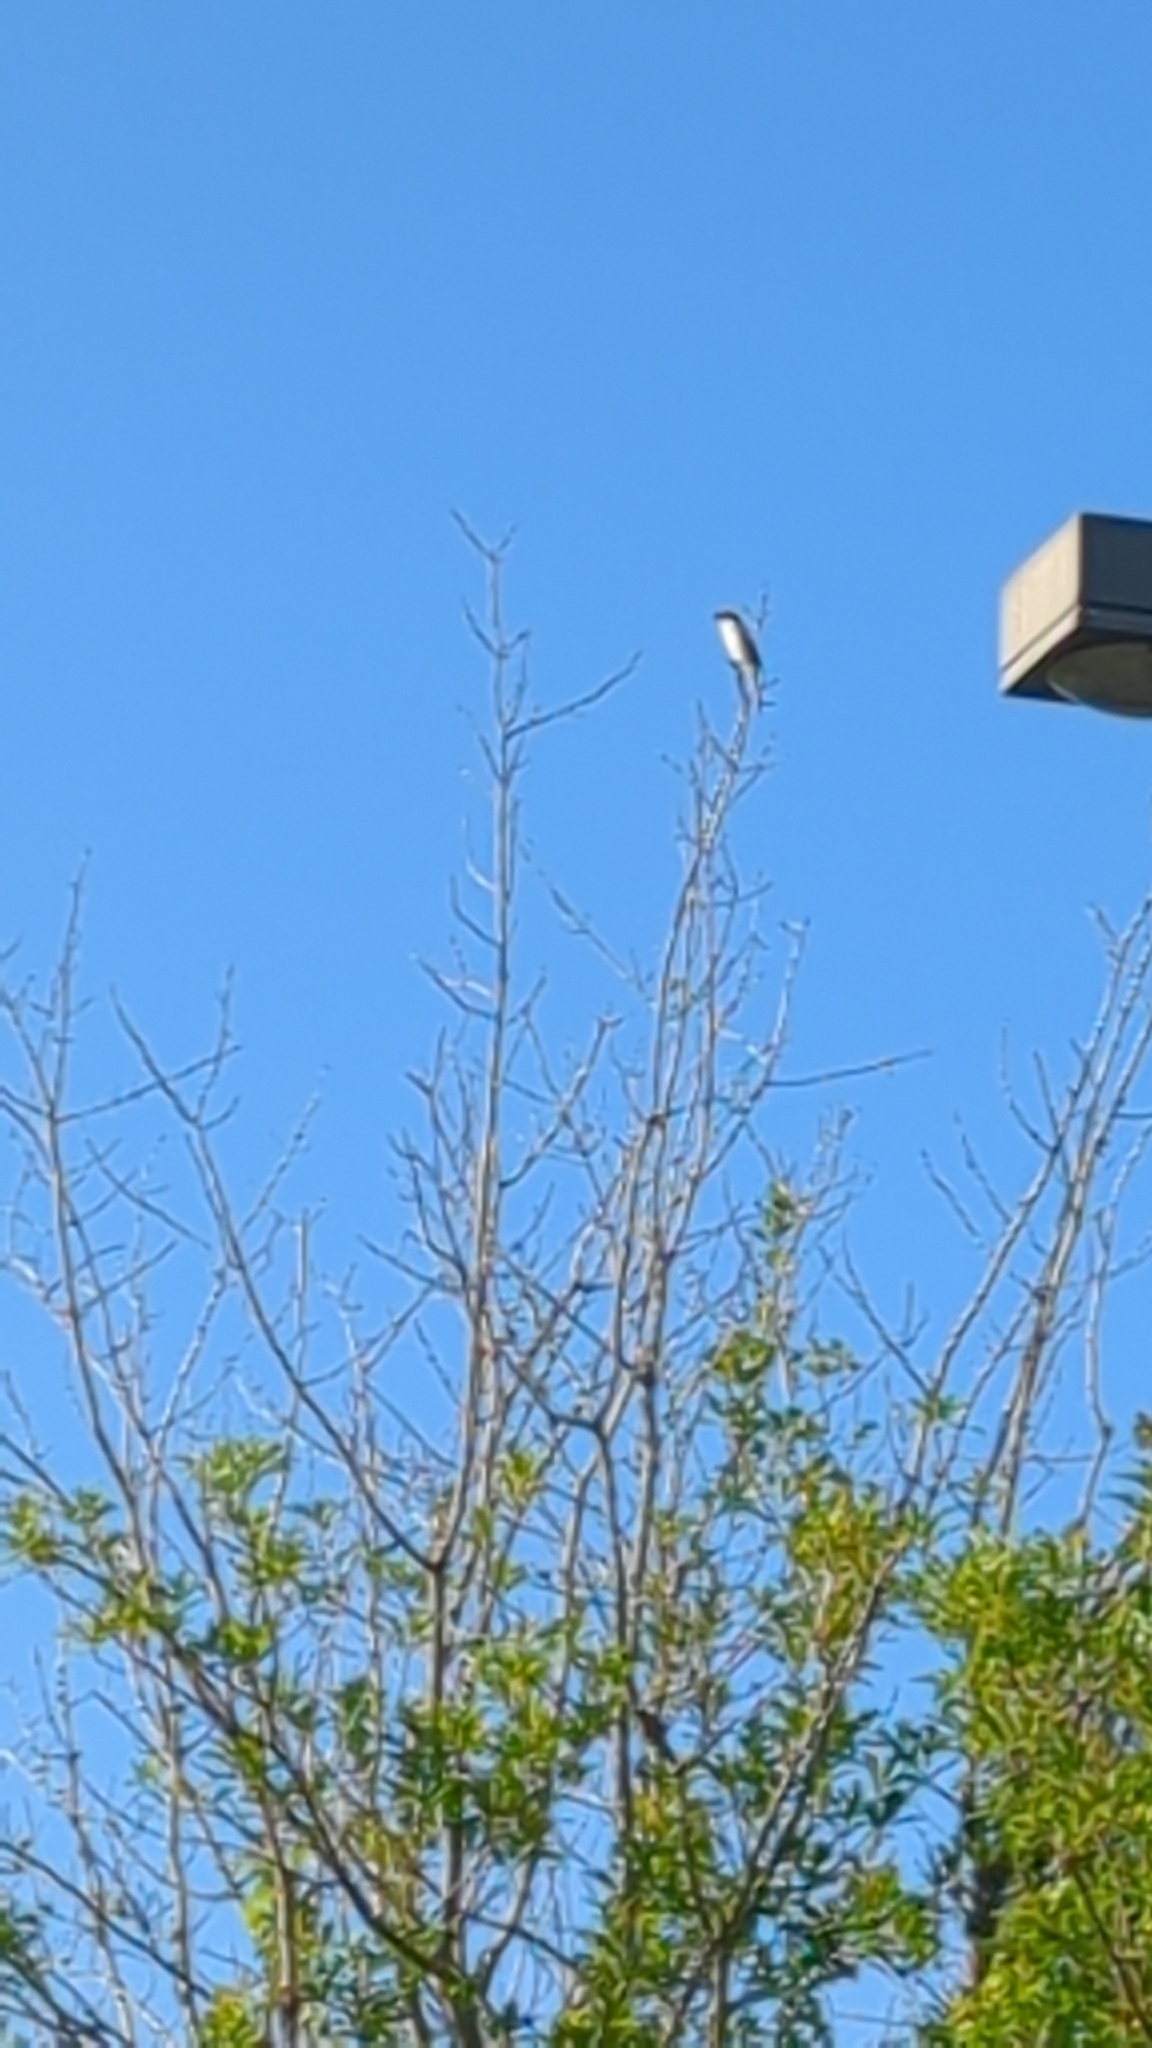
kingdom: Animalia
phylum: Chordata
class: Aves
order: Passeriformes
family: Laniidae
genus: Lanius
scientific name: Lanius ludovicianus
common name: Loggerhead shrike
